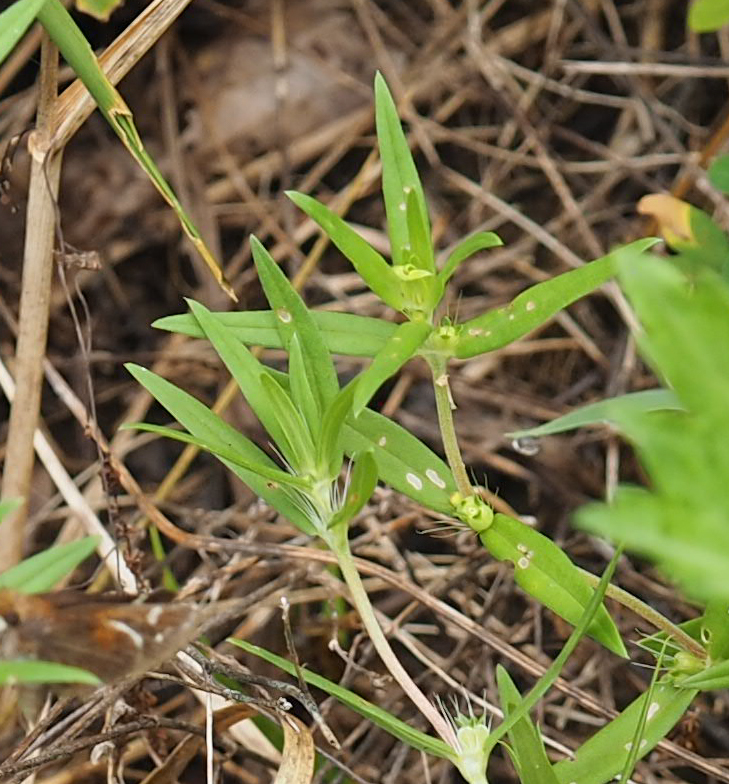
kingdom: Plantae
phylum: Tracheophyta
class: Magnoliopsida
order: Gentianales
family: Rubiaceae
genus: Hexasepalum
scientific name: Hexasepalum teres
